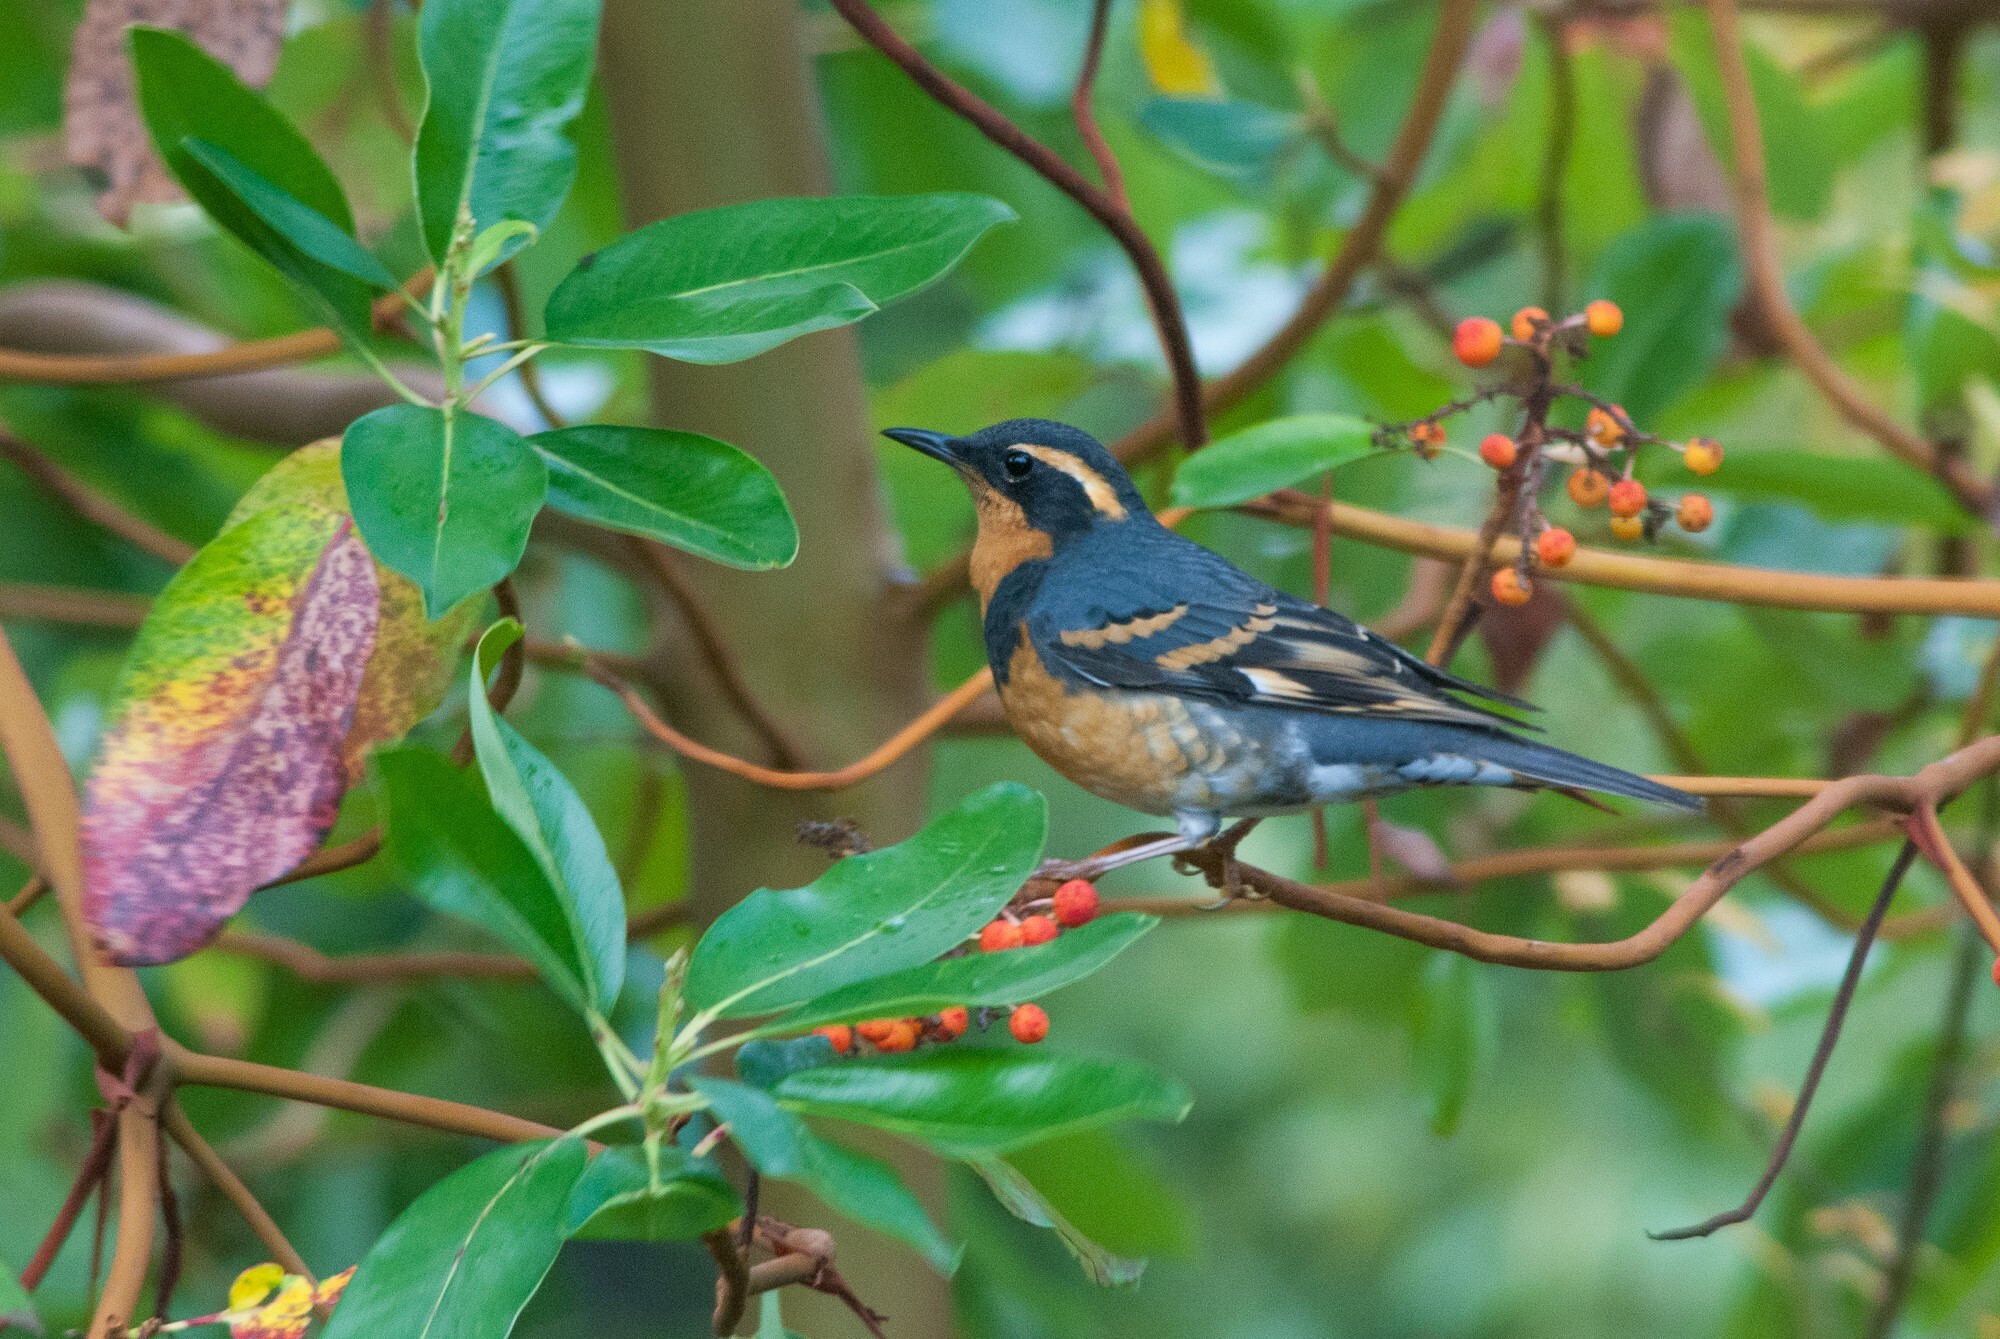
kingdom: Animalia
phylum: Chordata
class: Aves
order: Passeriformes
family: Turdidae
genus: Ixoreus
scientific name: Ixoreus naevius
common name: Varied thrush
